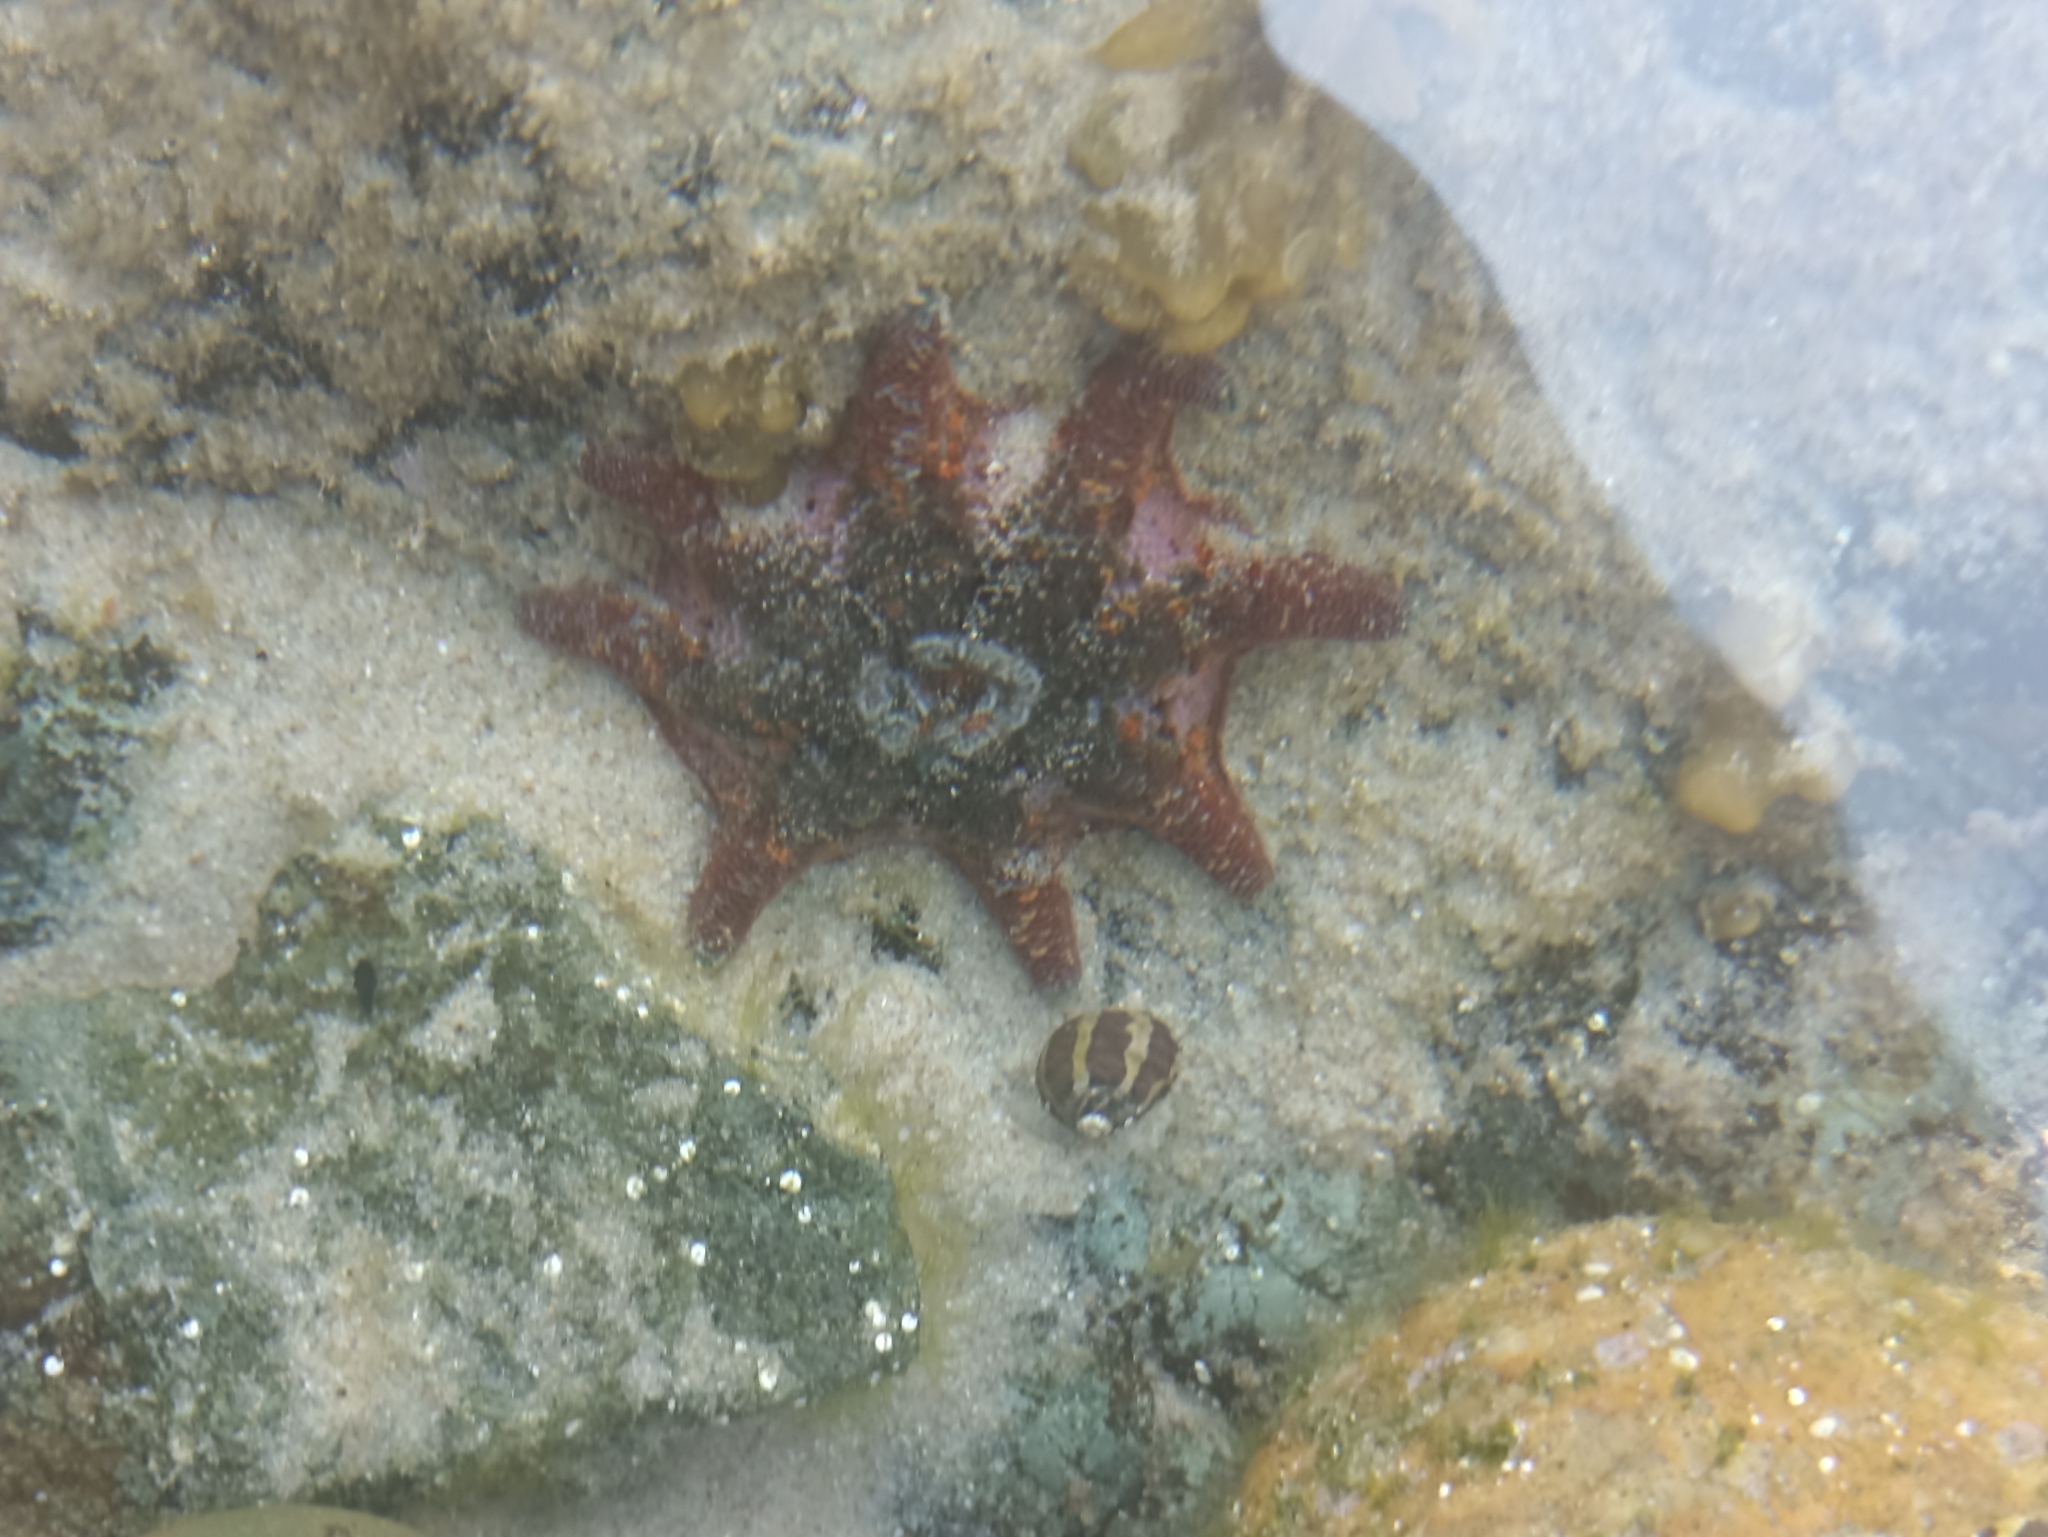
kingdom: Animalia
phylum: Echinodermata
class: Asteroidea
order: Valvatida
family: Asterinidae
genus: Meridiastra
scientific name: Meridiastra calcar
